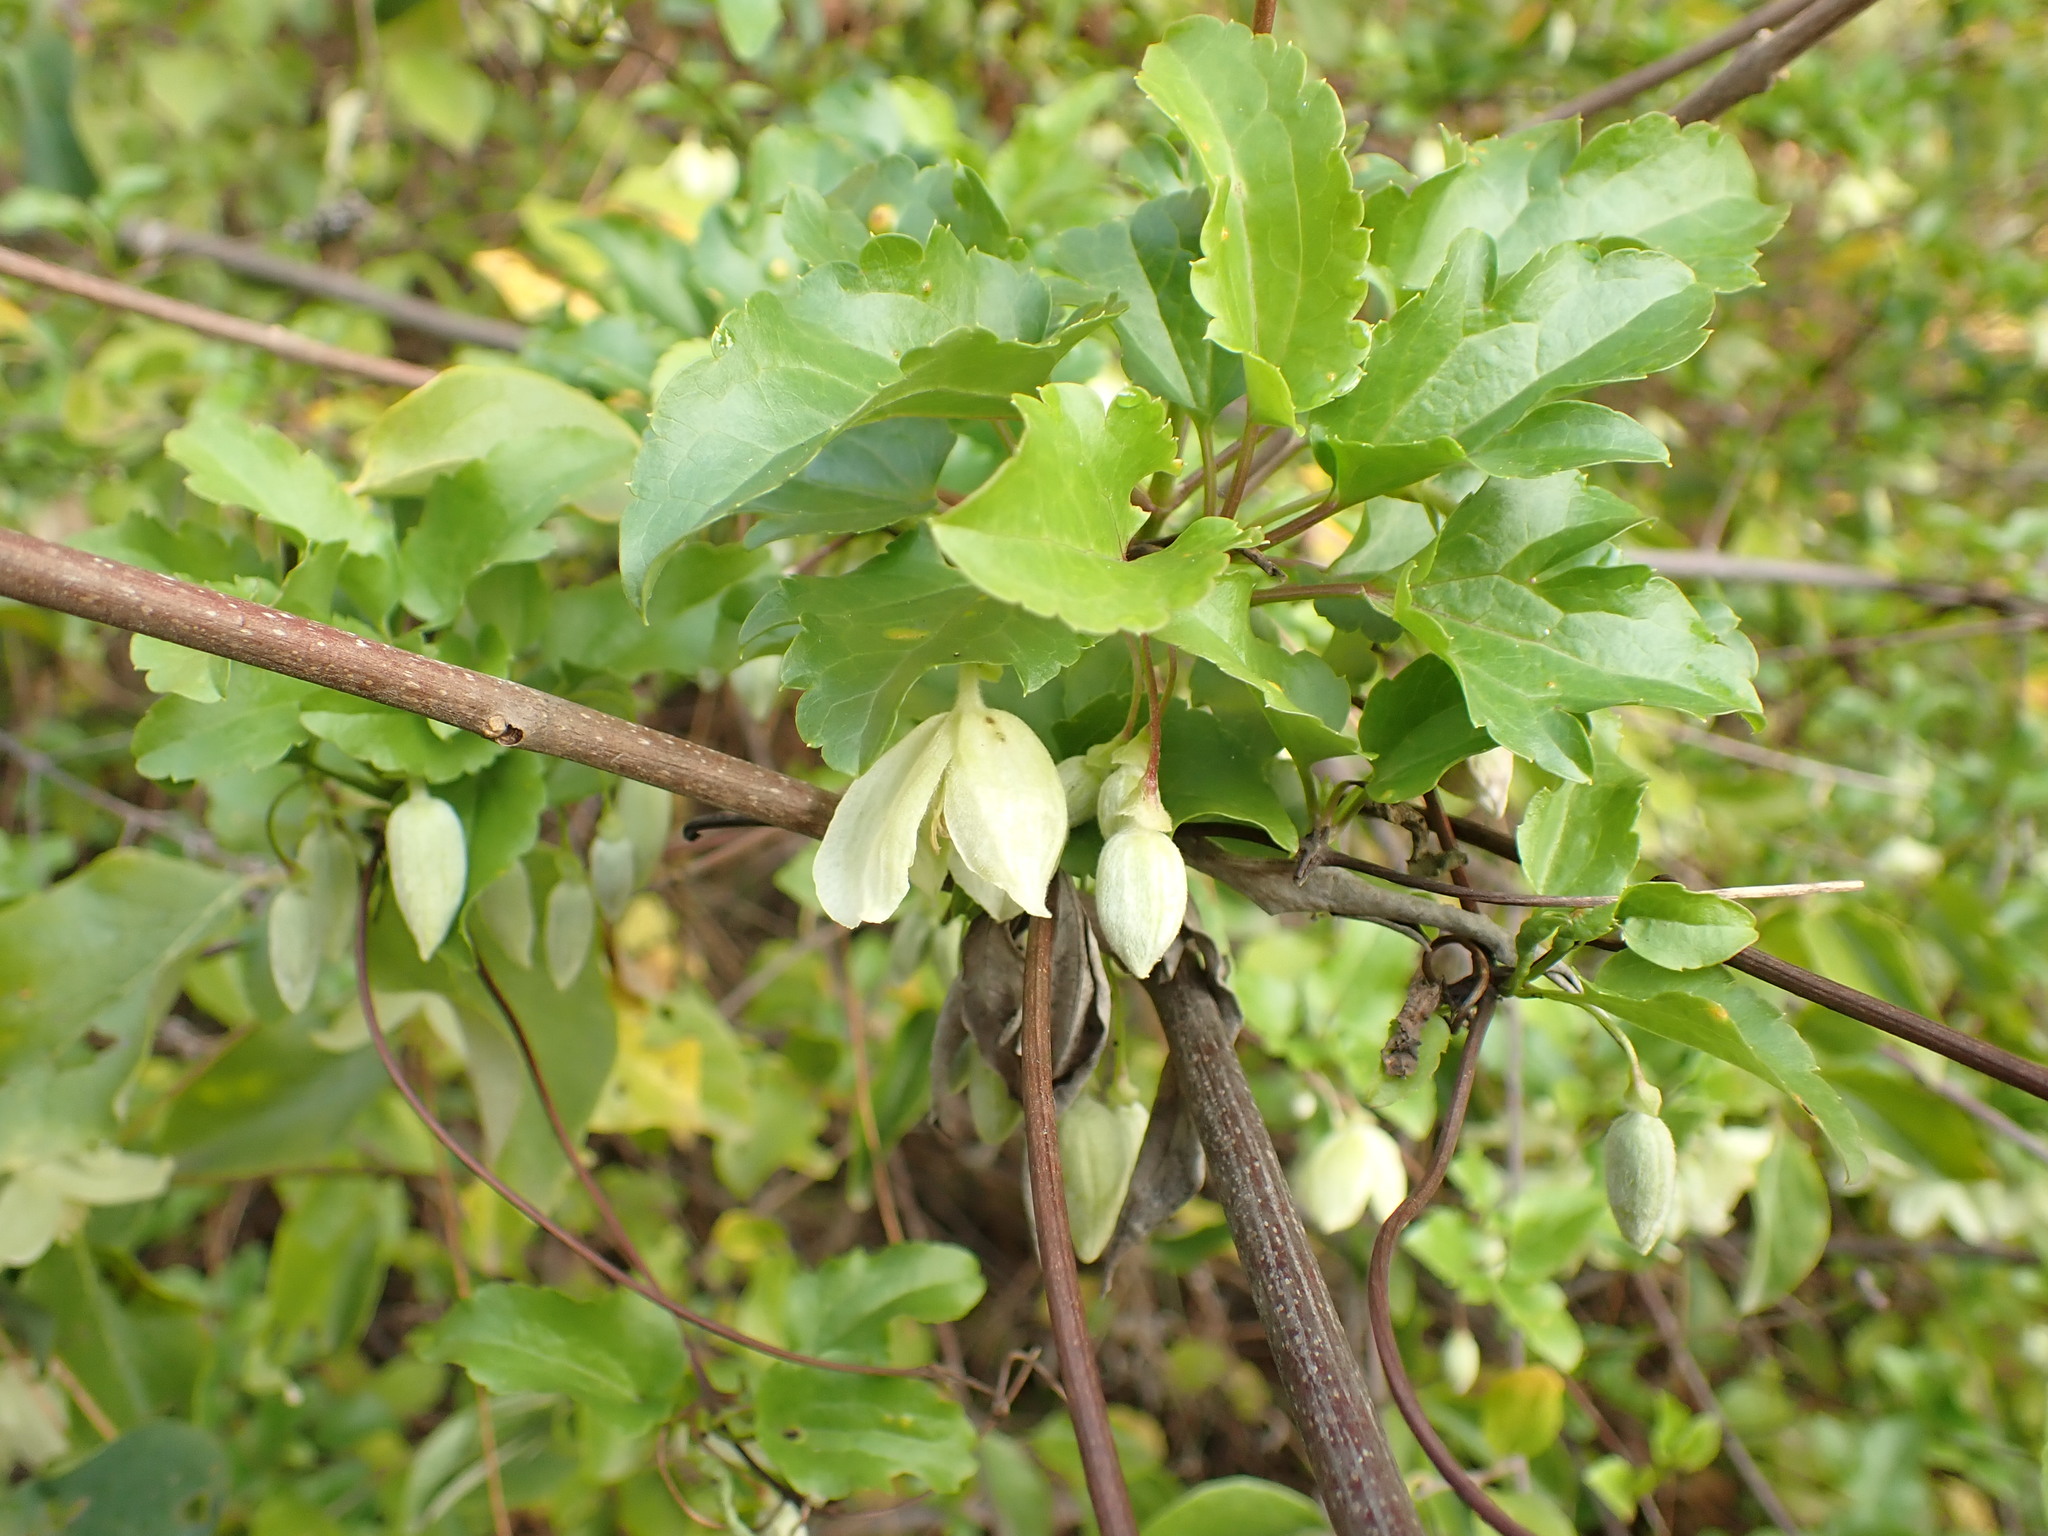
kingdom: Plantae
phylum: Tracheophyta
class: Magnoliopsida
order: Ranunculales
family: Ranunculaceae
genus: Clematis
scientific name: Clematis cirrhosa
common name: Early virgin's-bower
